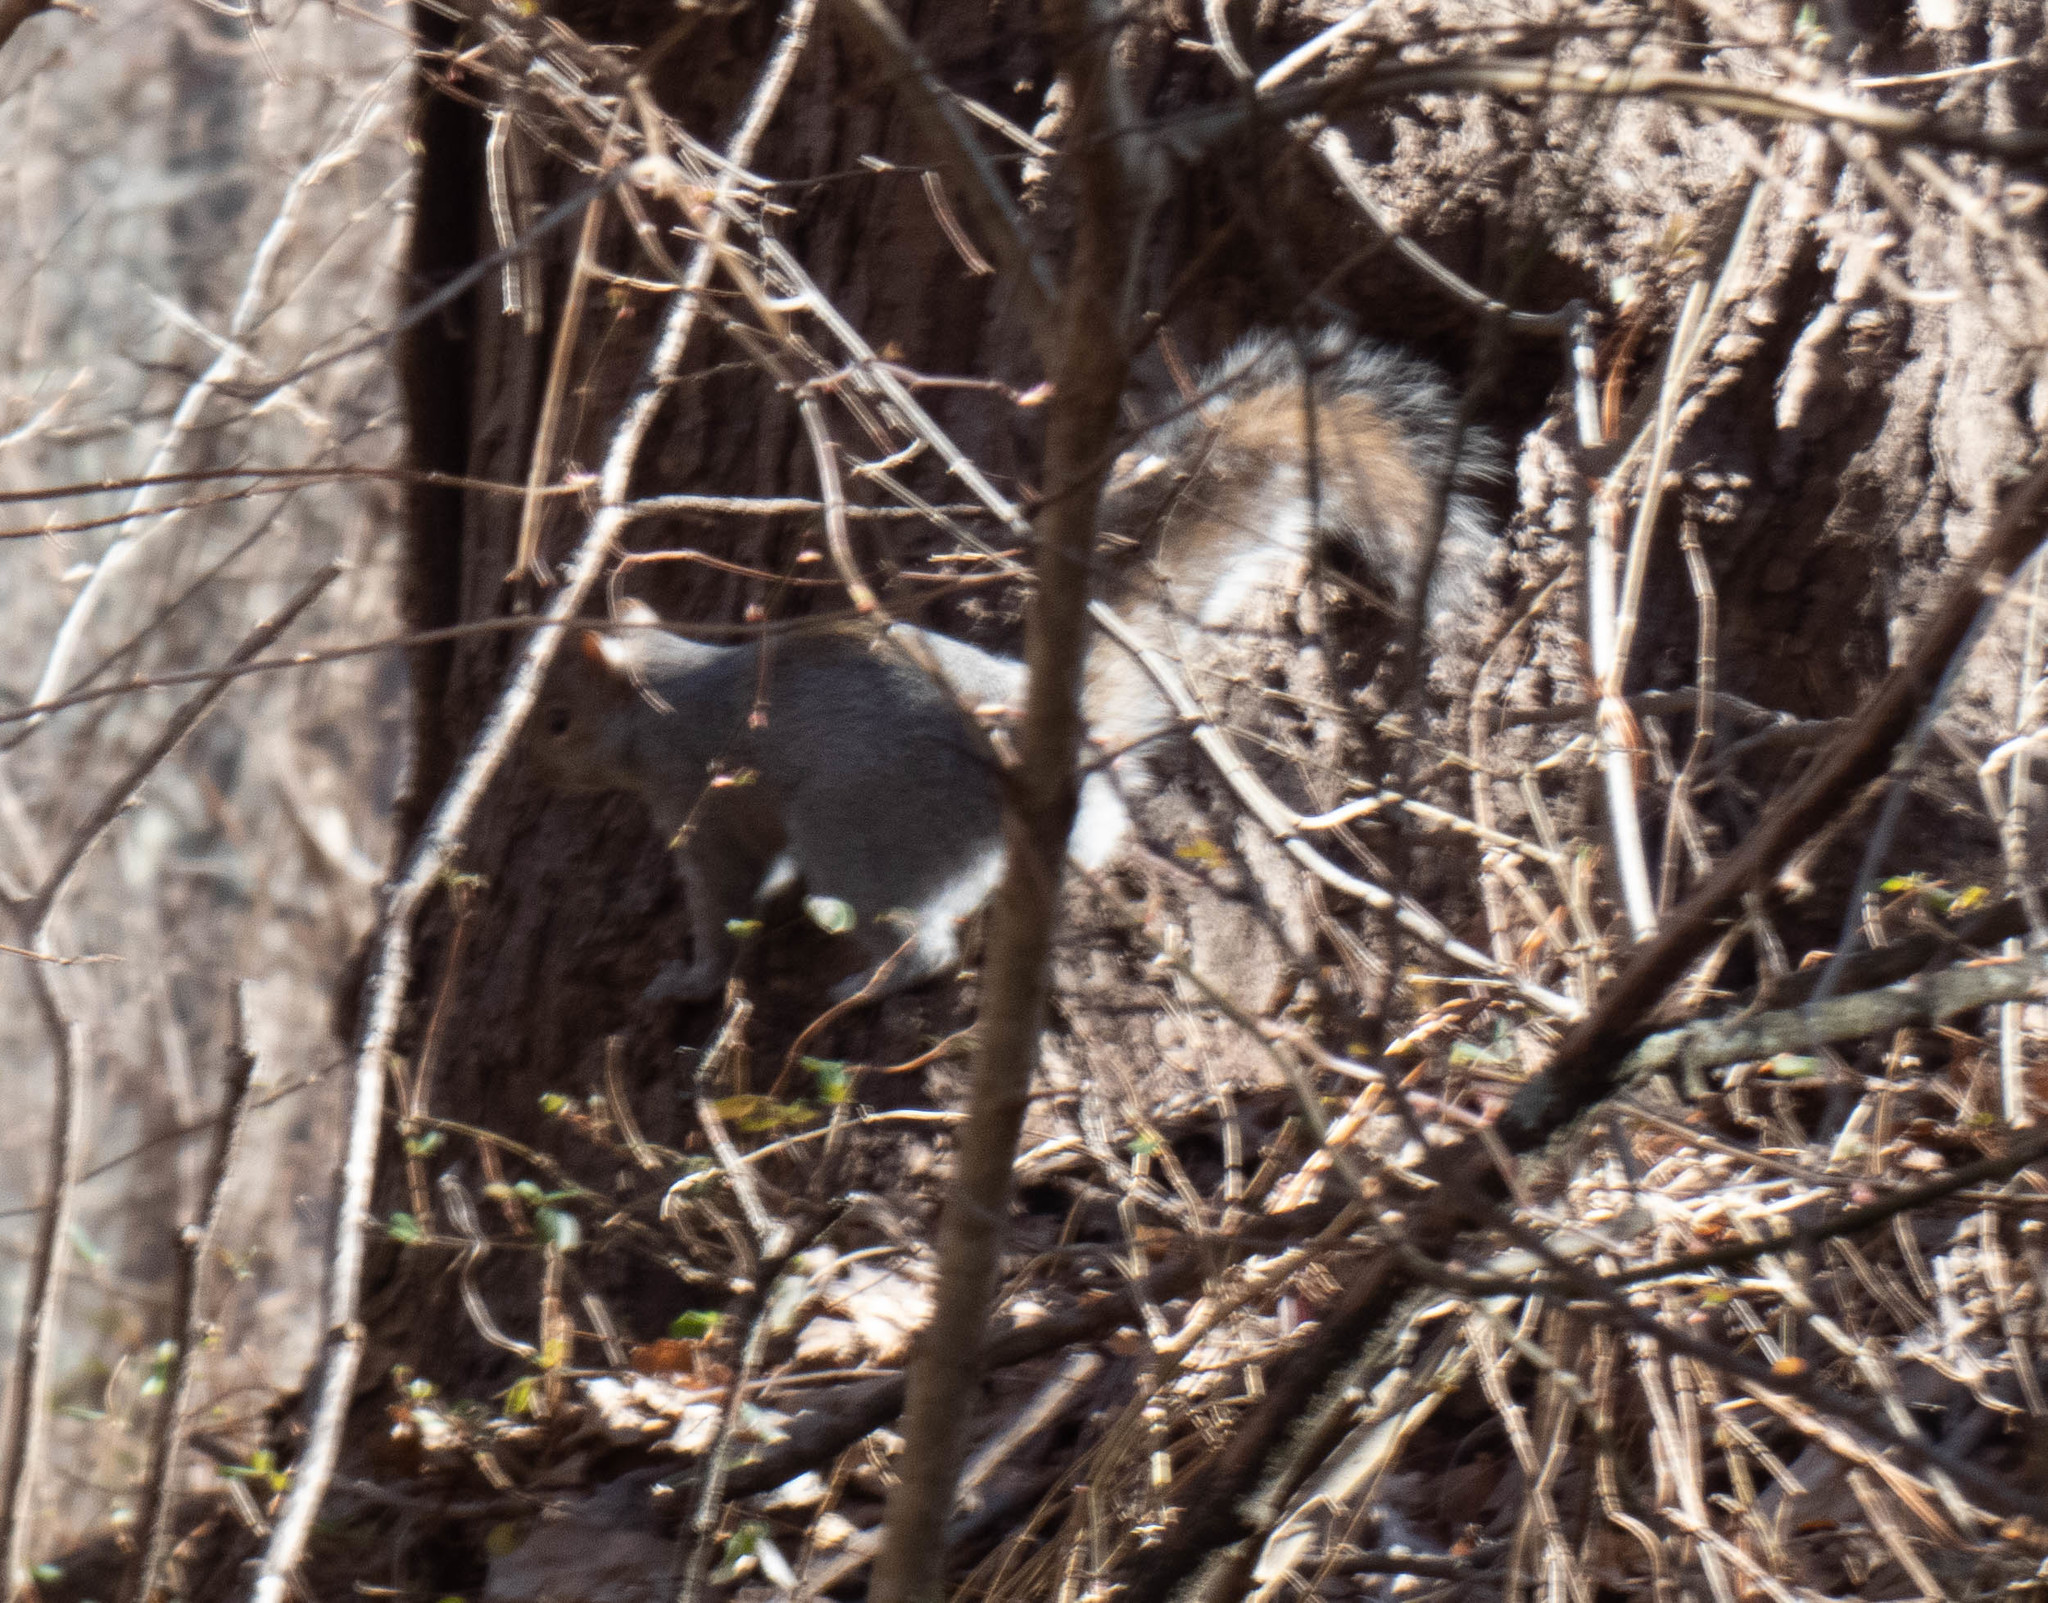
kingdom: Animalia
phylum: Chordata
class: Mammalia
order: Rodentia
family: Sciuridae
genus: Sciurus
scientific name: Sciurus carolinensis
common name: Eastern gray squirrel
